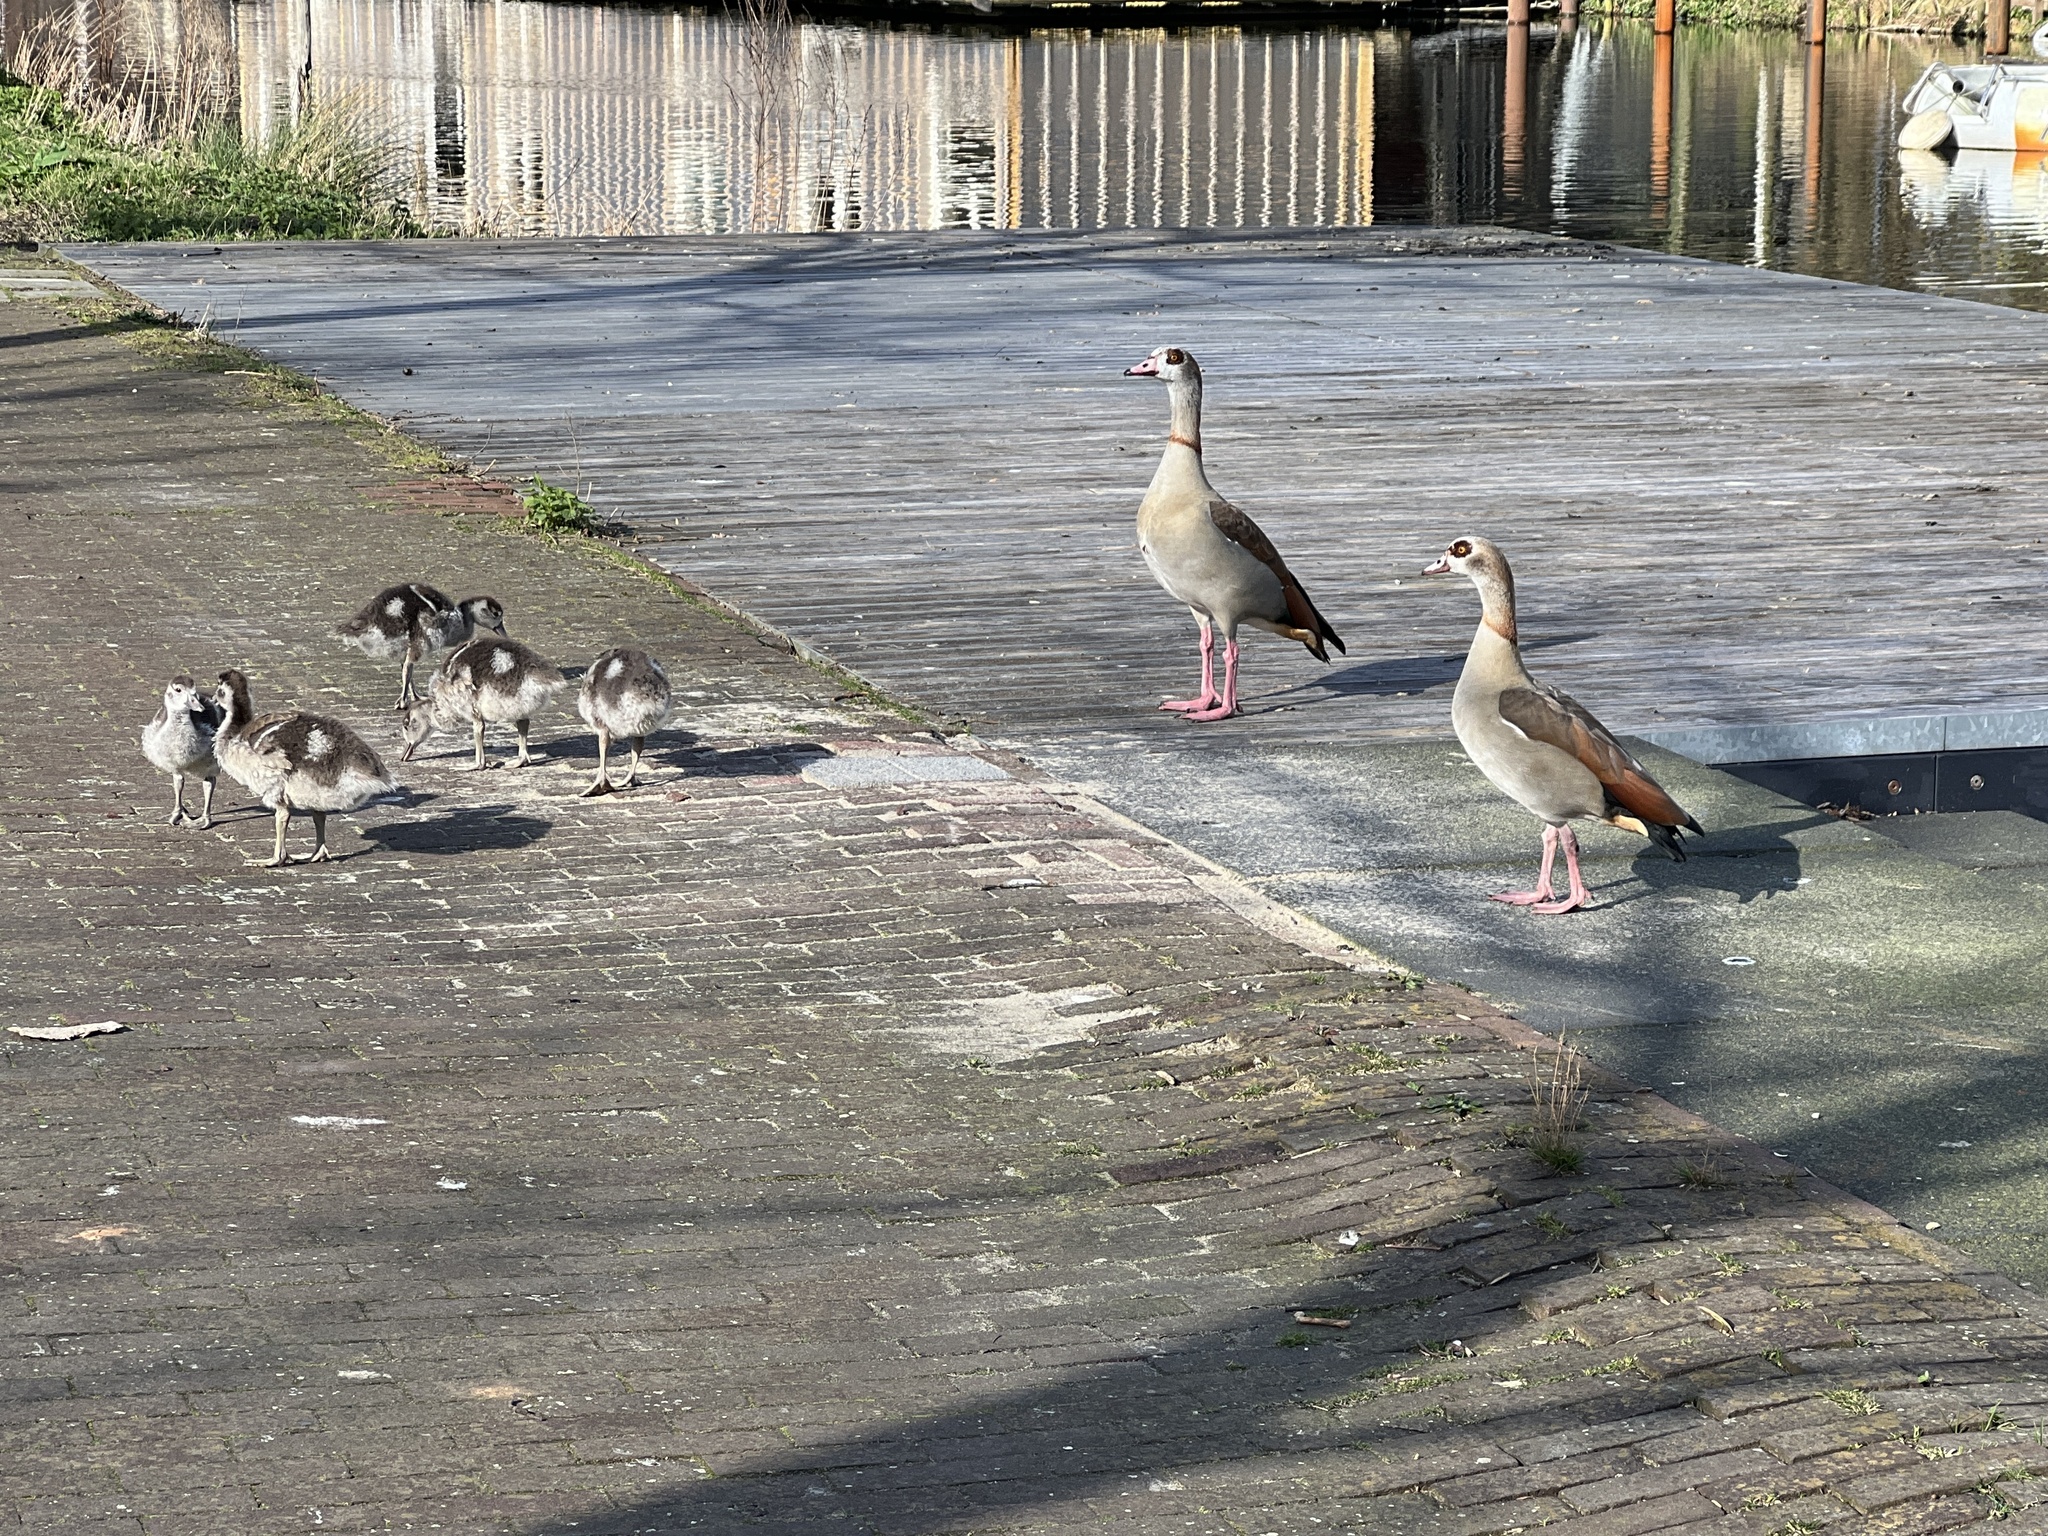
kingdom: Animalia
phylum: Chordata
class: Aves
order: Anseriformes
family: Anatidae
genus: Alopochen
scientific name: Alopochen aegyptiaca
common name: Egyptian goose
